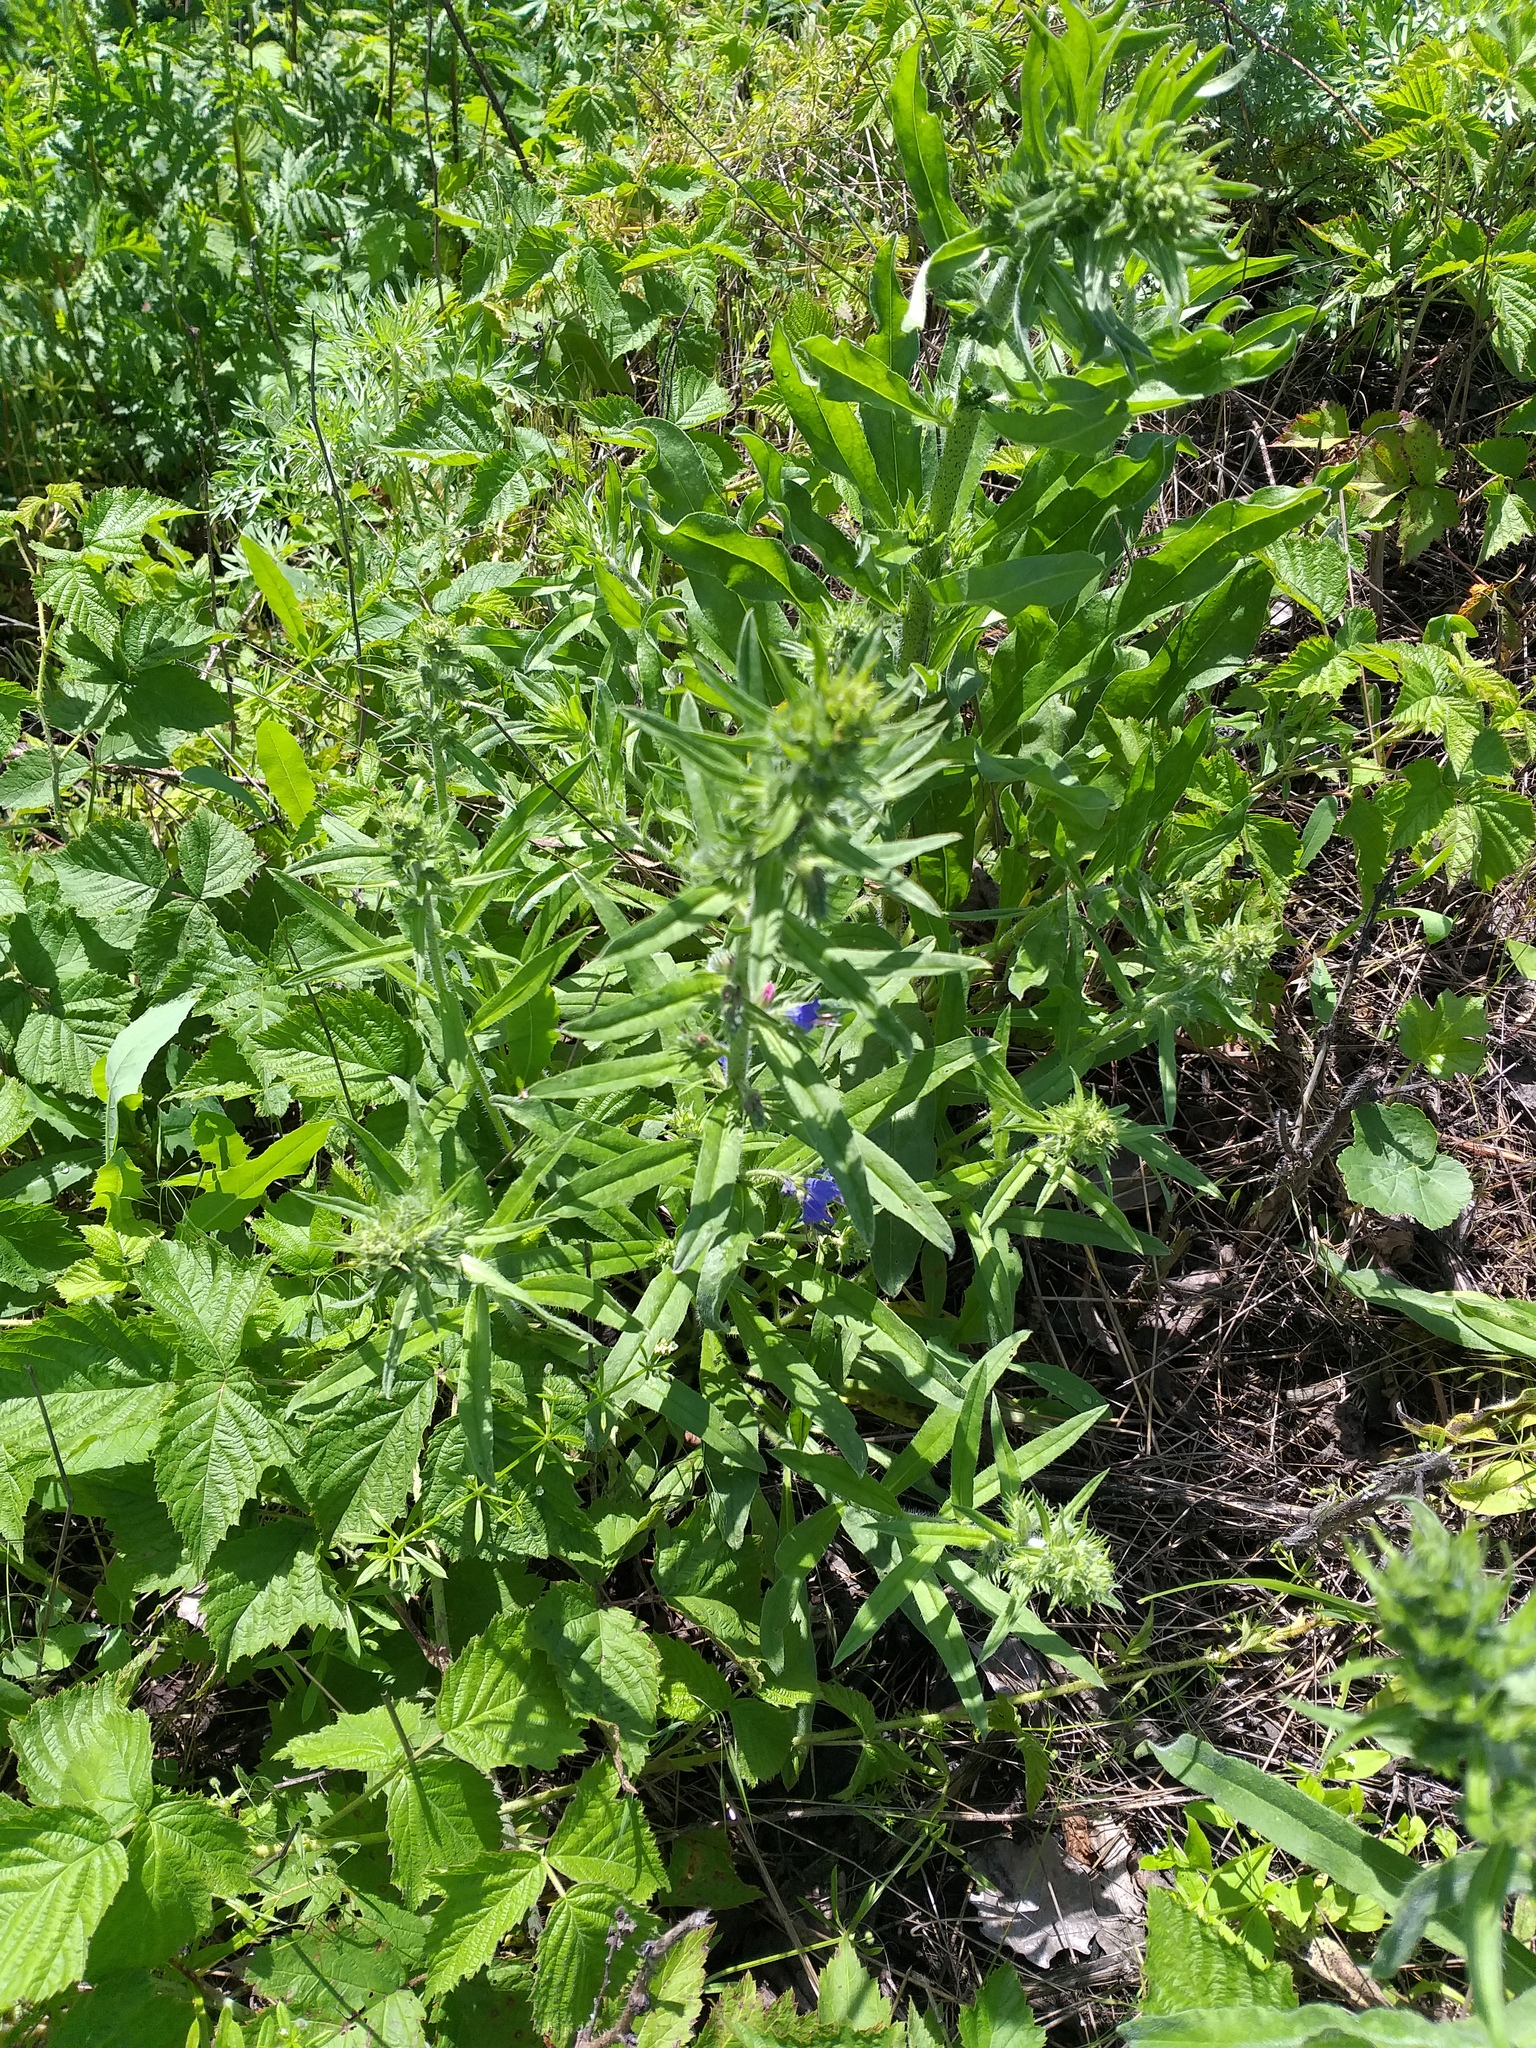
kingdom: Plantae
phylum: Tracheophyta
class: Magnoliopsida
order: Boraginales
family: Boraginaceae
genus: Echium
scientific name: Echium vulgare
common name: Common viper's bugloss
